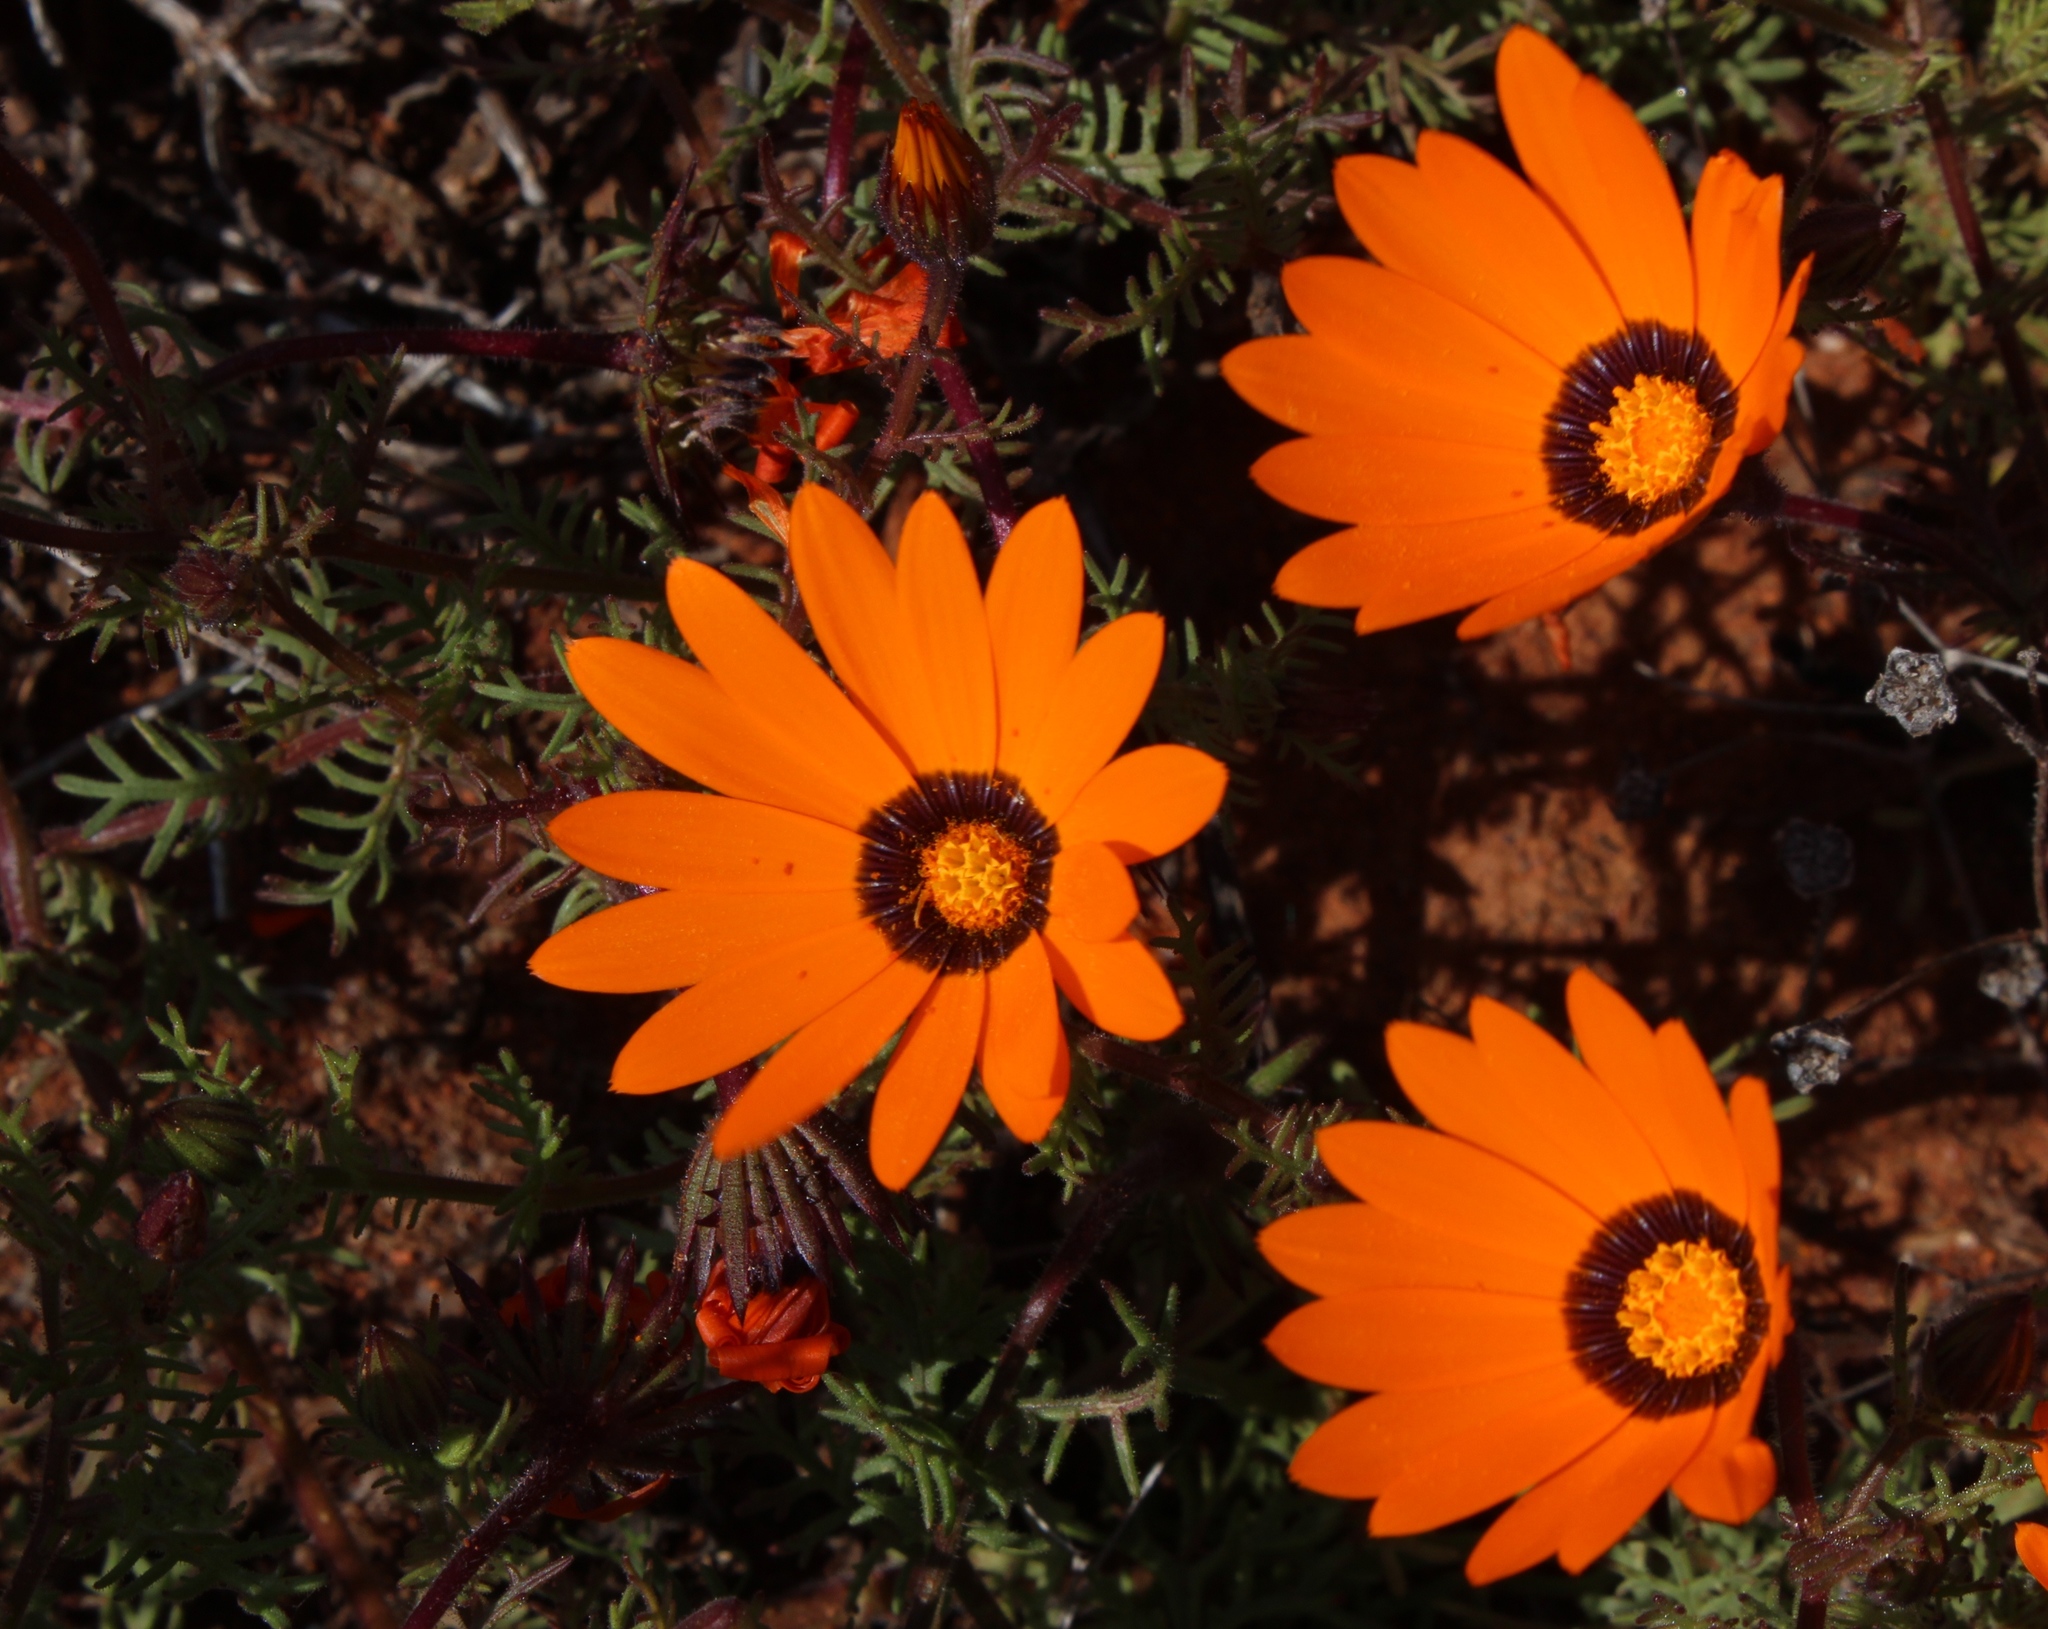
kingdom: Plantae
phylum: Tracheophyta
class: Magnoliopsida
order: Asterales
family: Asteraceae
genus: Dimorphotheca
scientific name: Dimorphotheca pinnata
